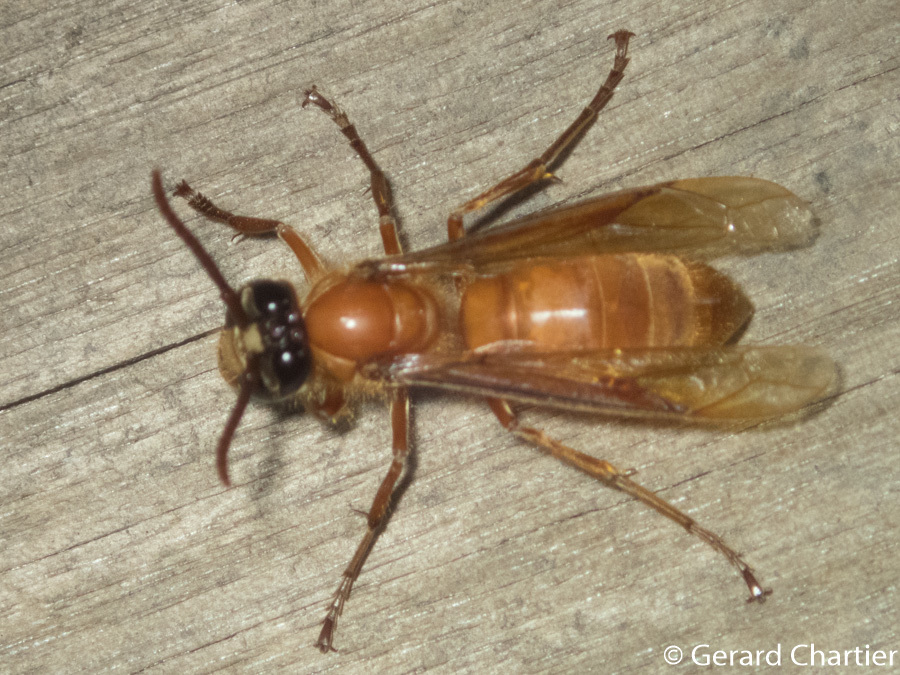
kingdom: Animalia
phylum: Arthropoda
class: Insecta
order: Hymenoptera
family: Vespidae
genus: Provespa
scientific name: Provespa barthelemyi
